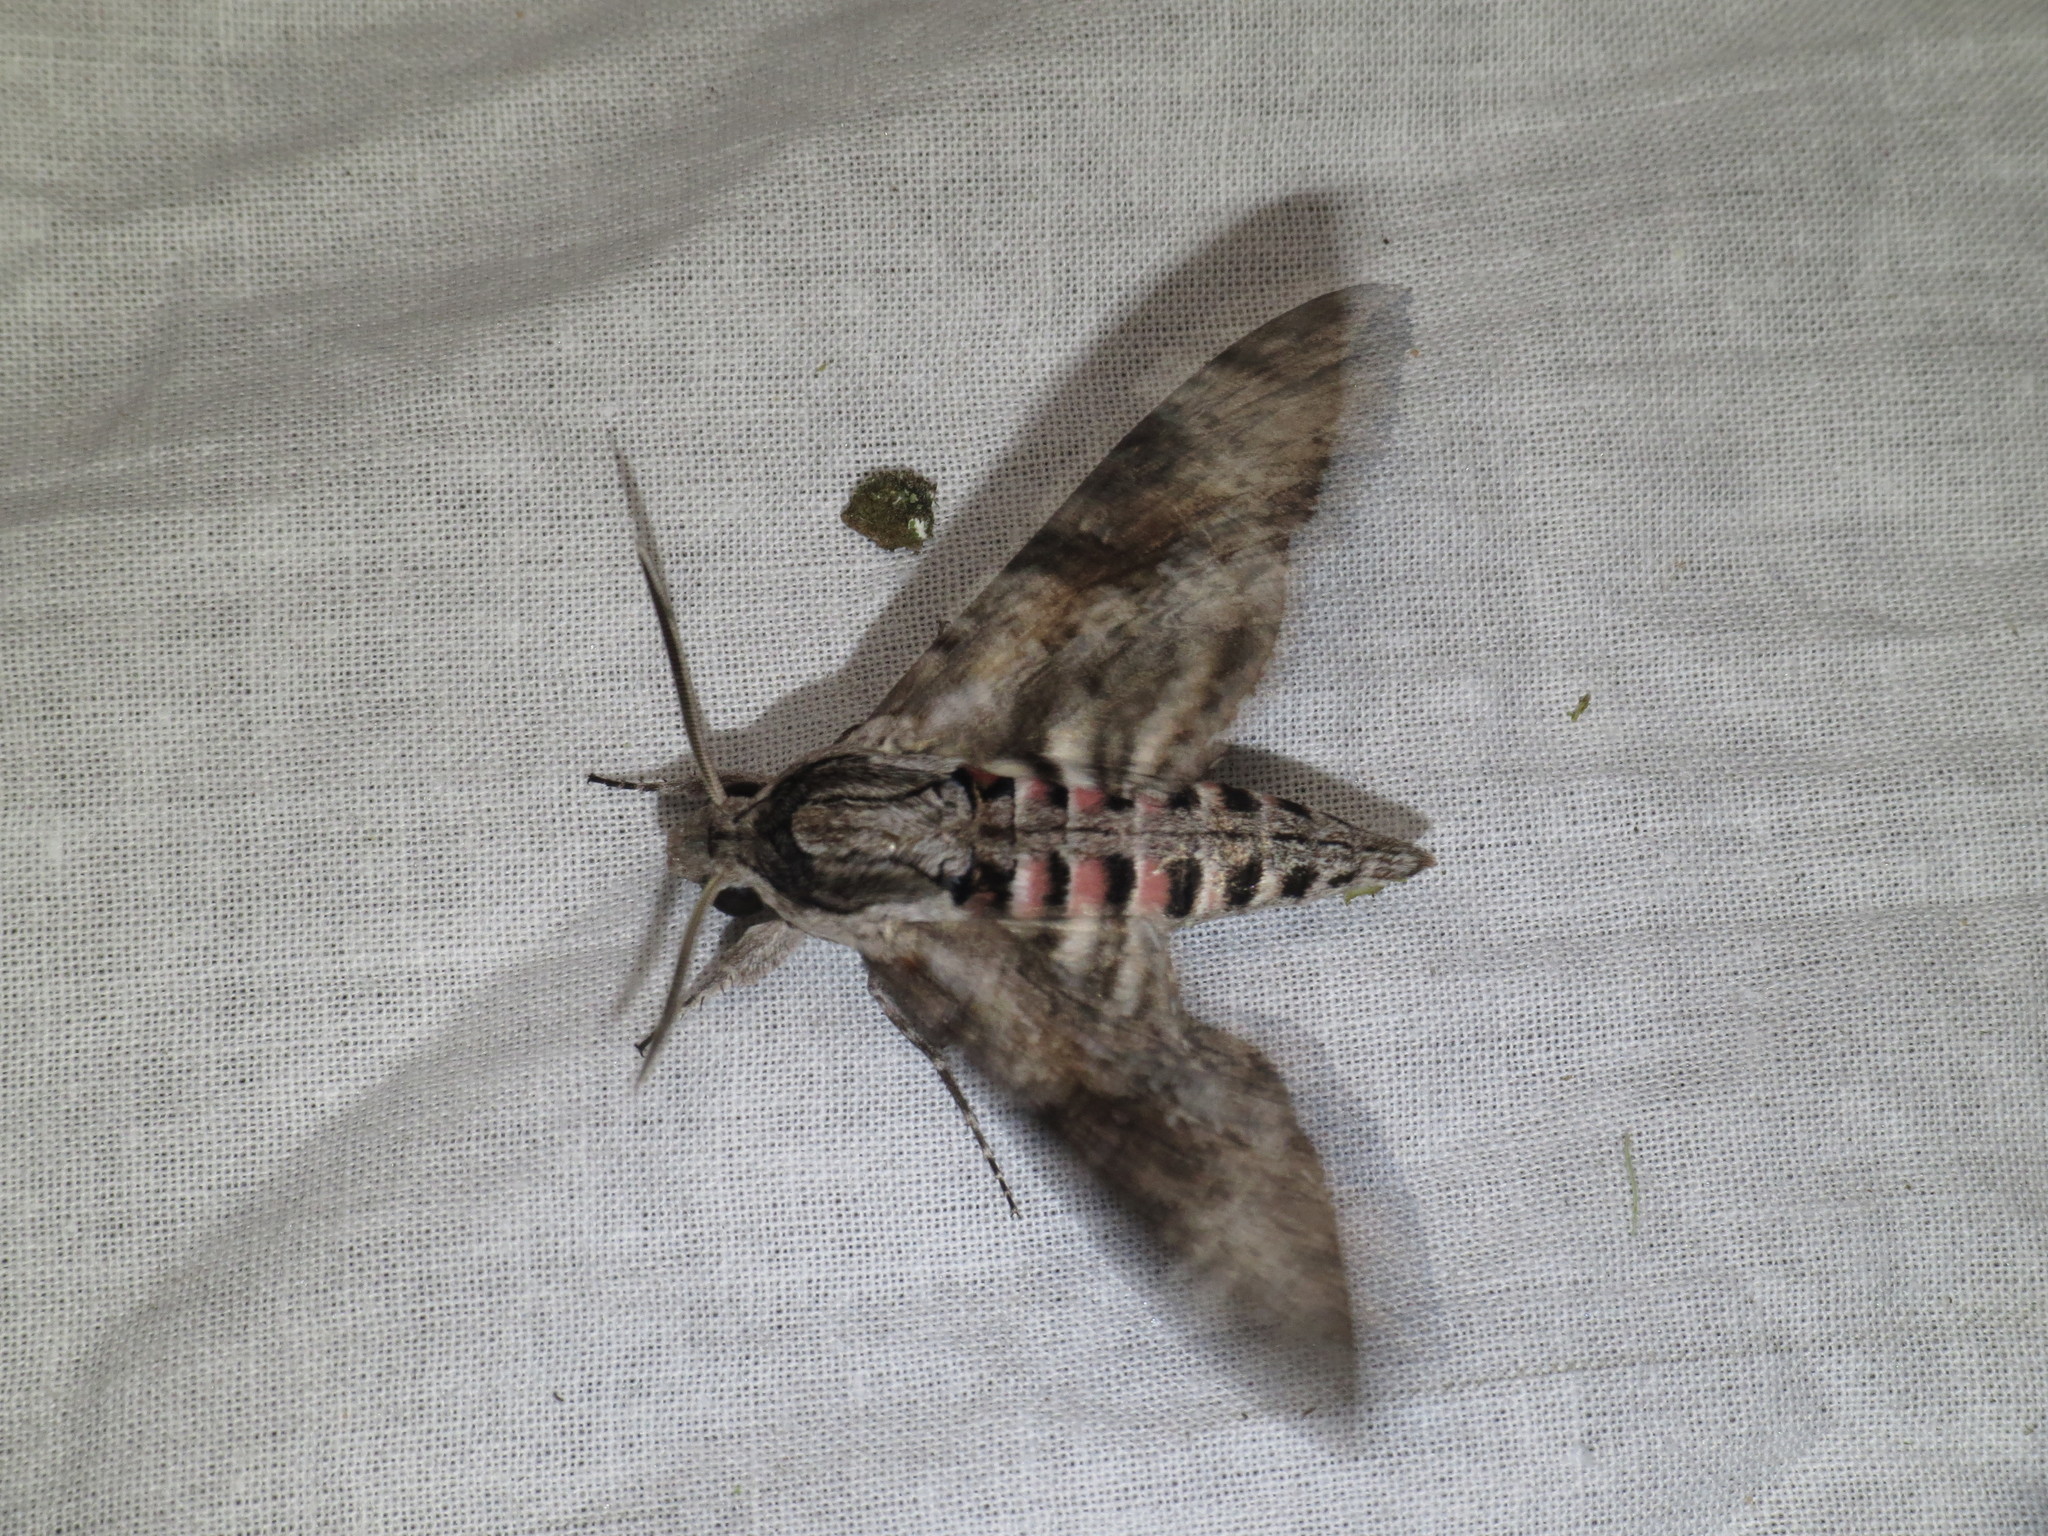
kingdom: Animalia
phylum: Arthropoda
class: Insecta
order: Lepidoptera
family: Sphingidae
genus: Agrius
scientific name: Agrius convolvuli
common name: Convolvulus hawkmoth
